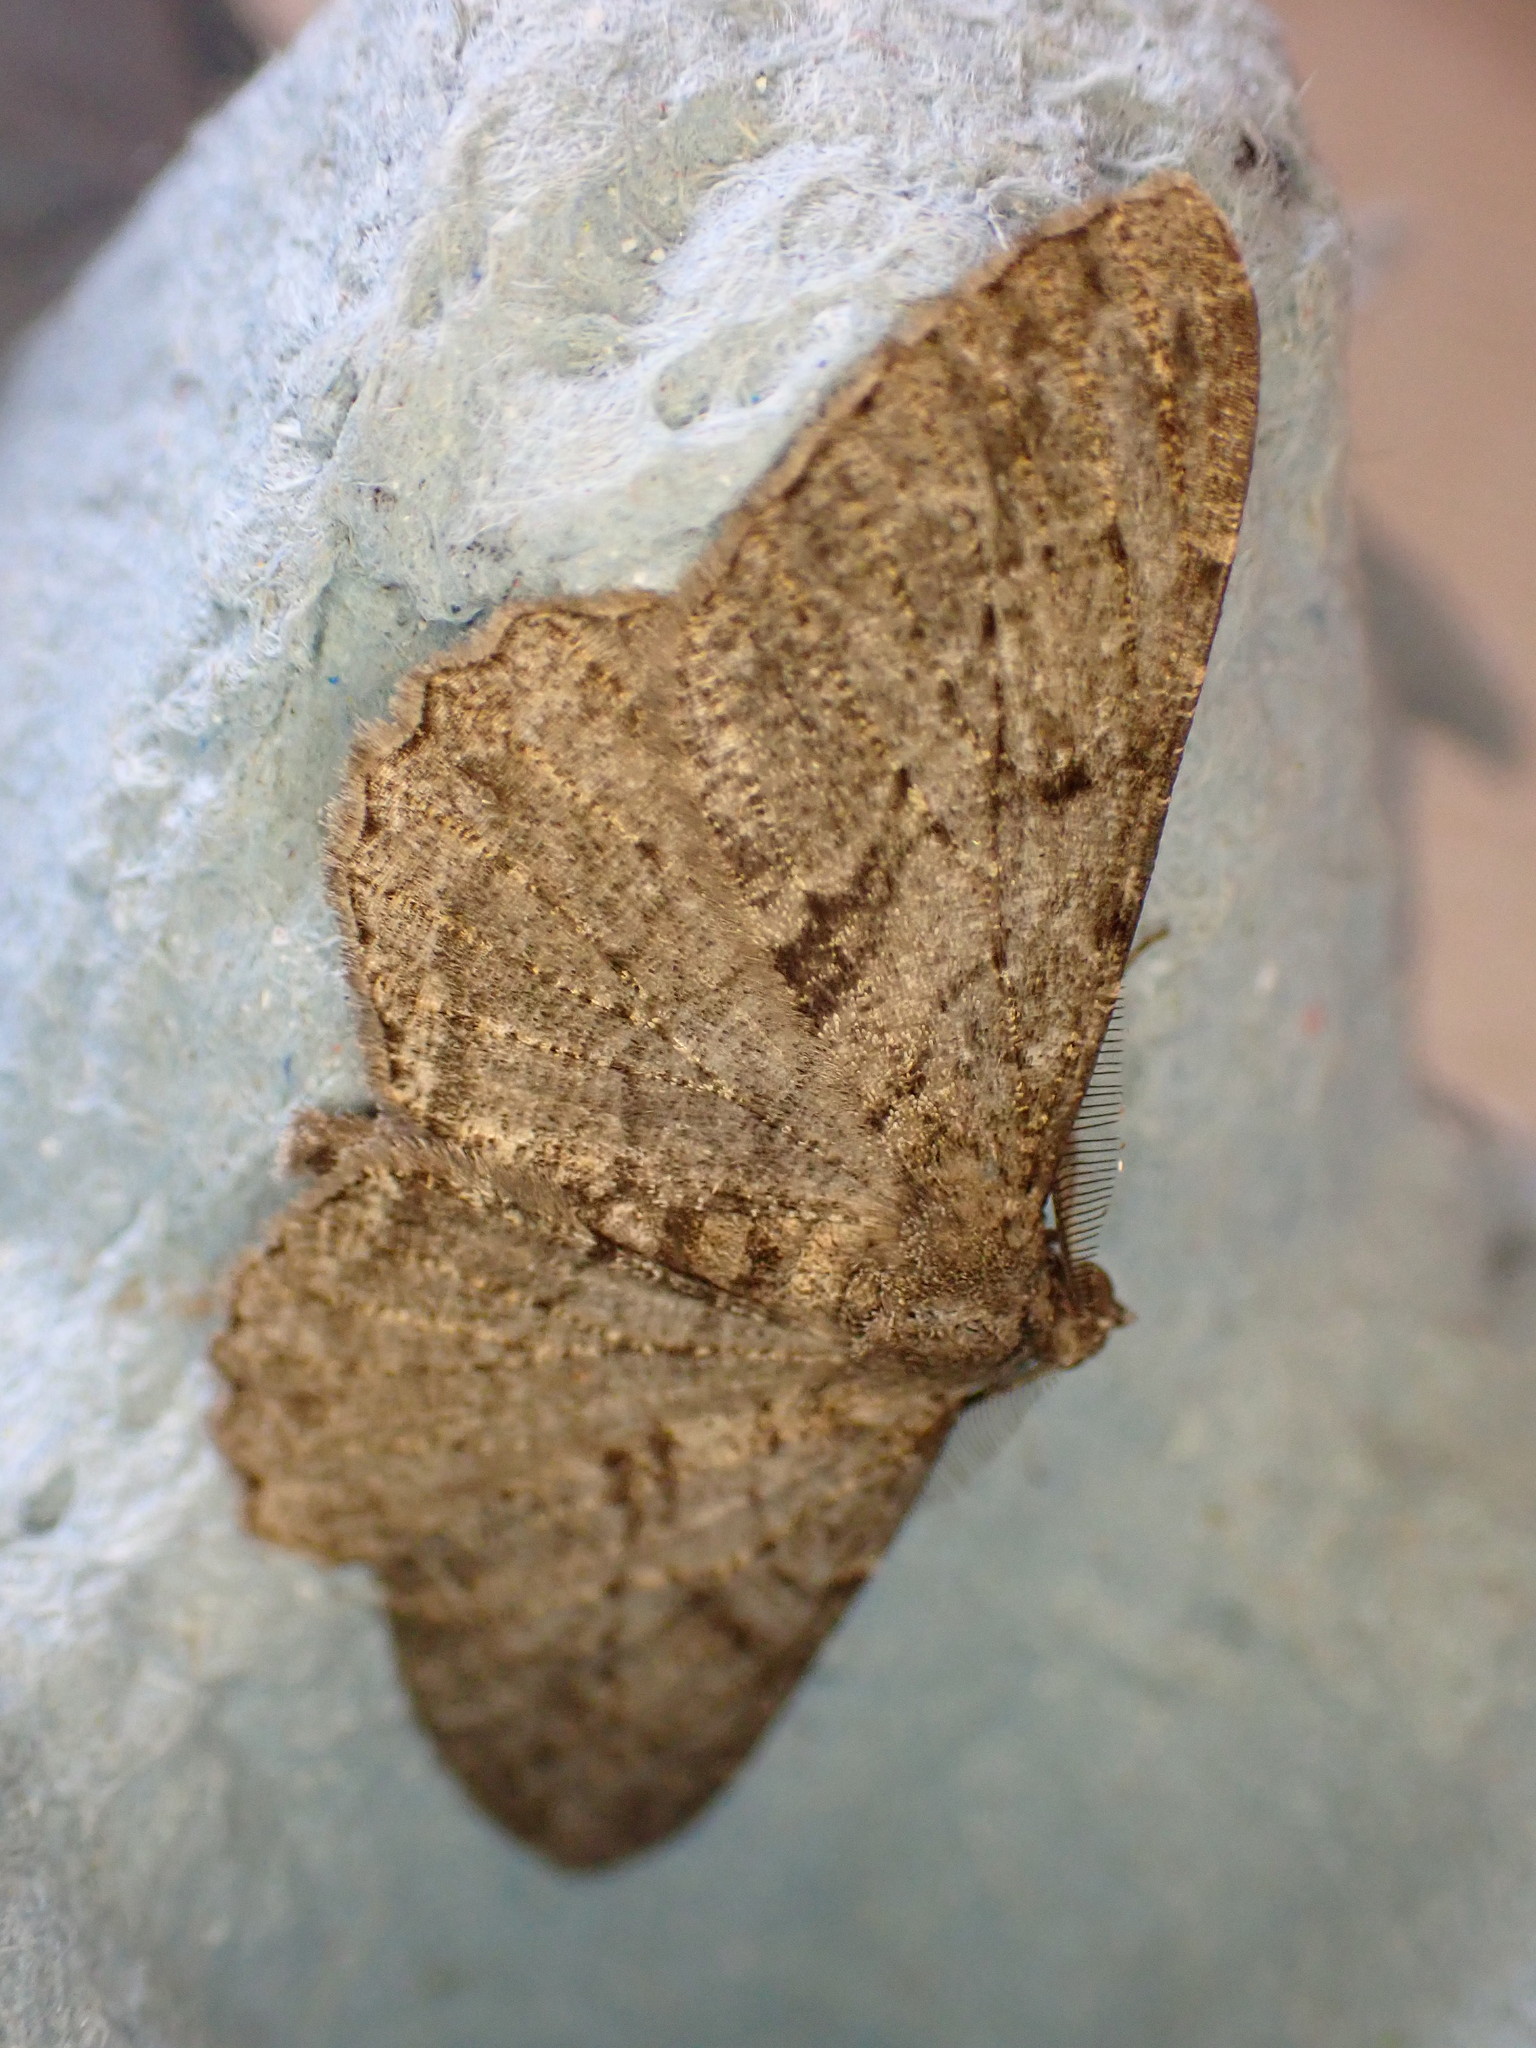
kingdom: Animalia
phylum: Arthropoda
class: Insecta
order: Lepidoptera
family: Geometridae
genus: Peribatodes
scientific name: Peribatodes rhomboidaria
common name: Willow beauty
